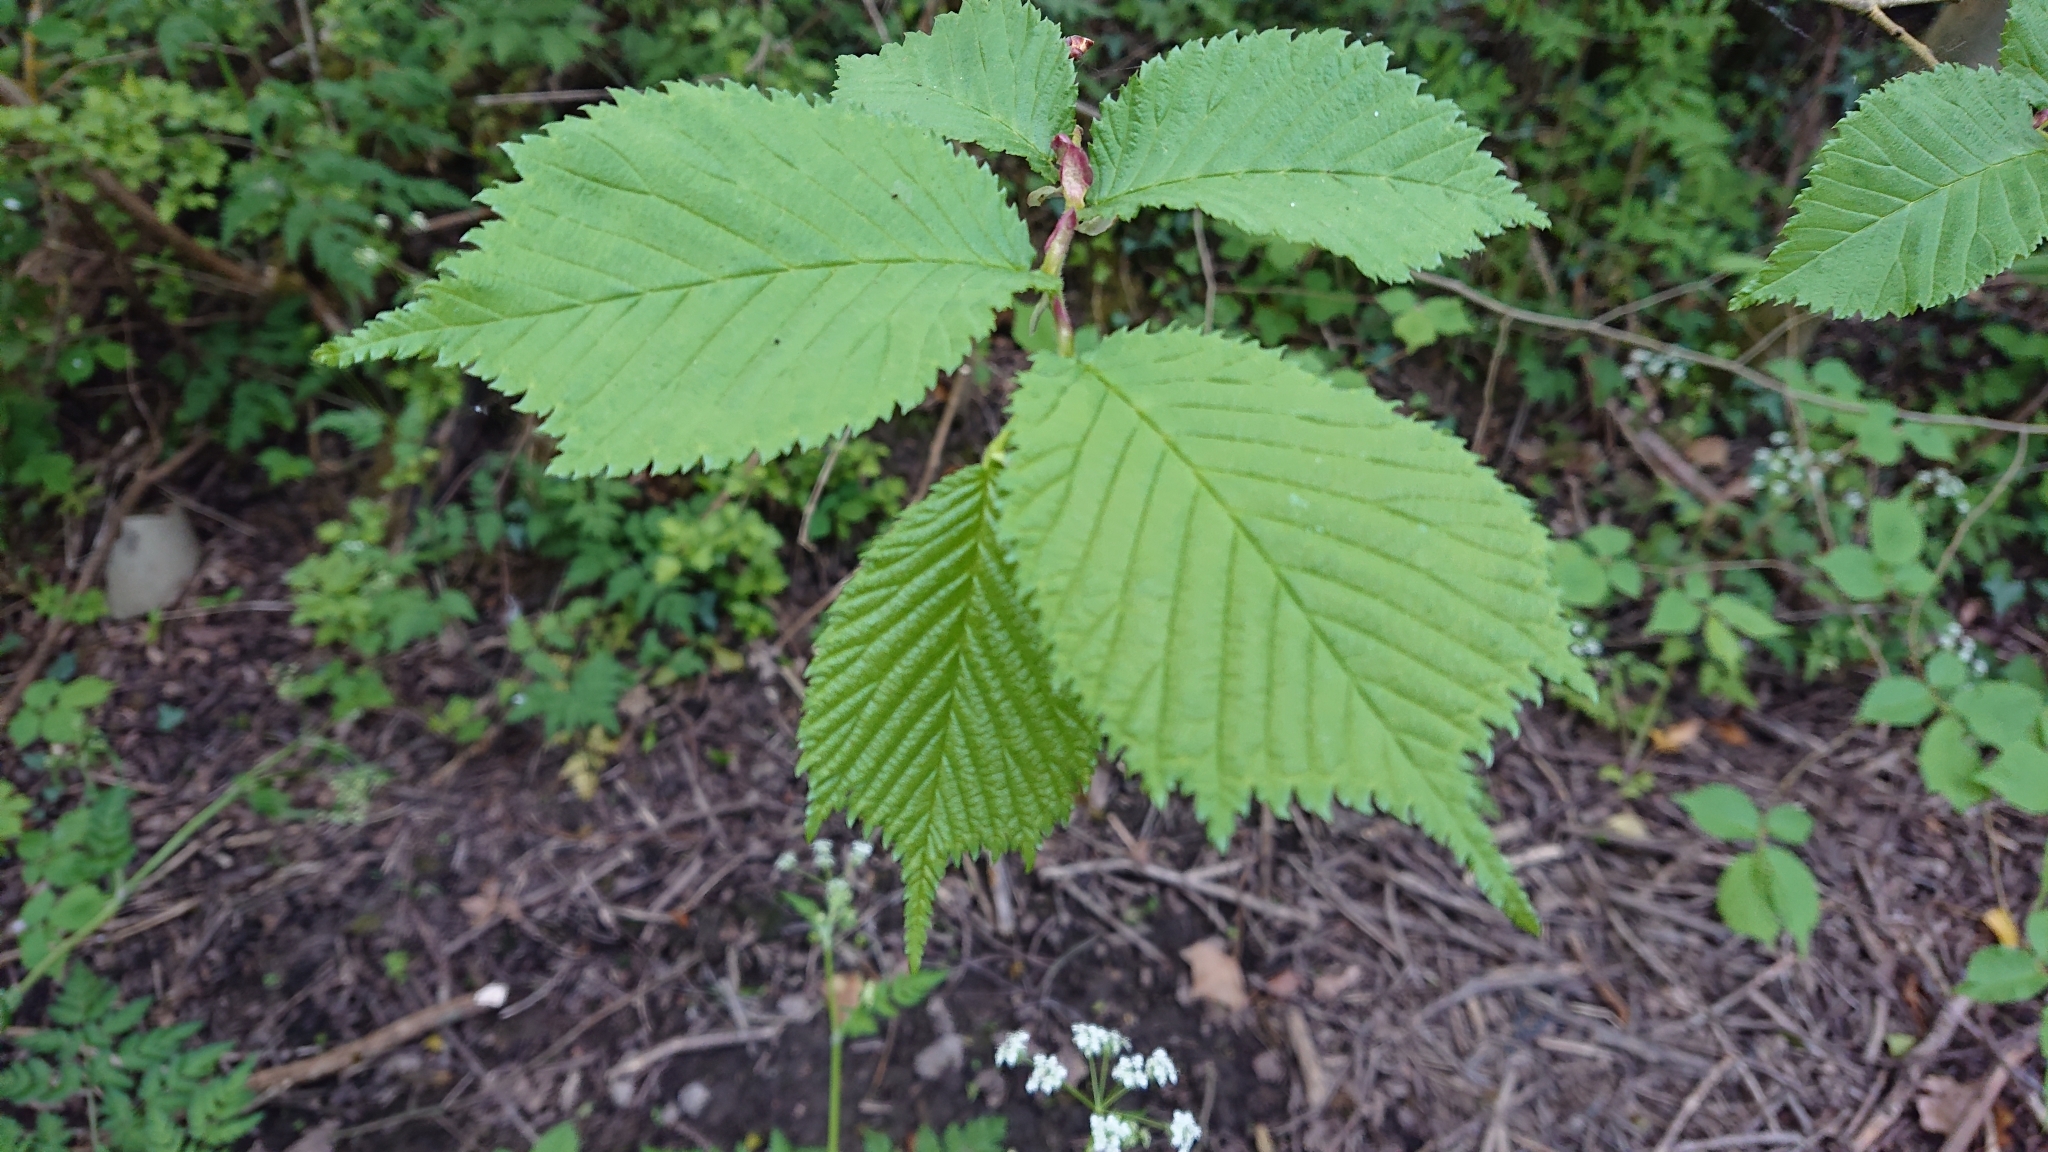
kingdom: Plantae
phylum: Tracheophyta
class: Magnoliopsida
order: Rosales
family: Ulmaceae
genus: Ulmus
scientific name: Ulmus glabra
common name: Wych elm
